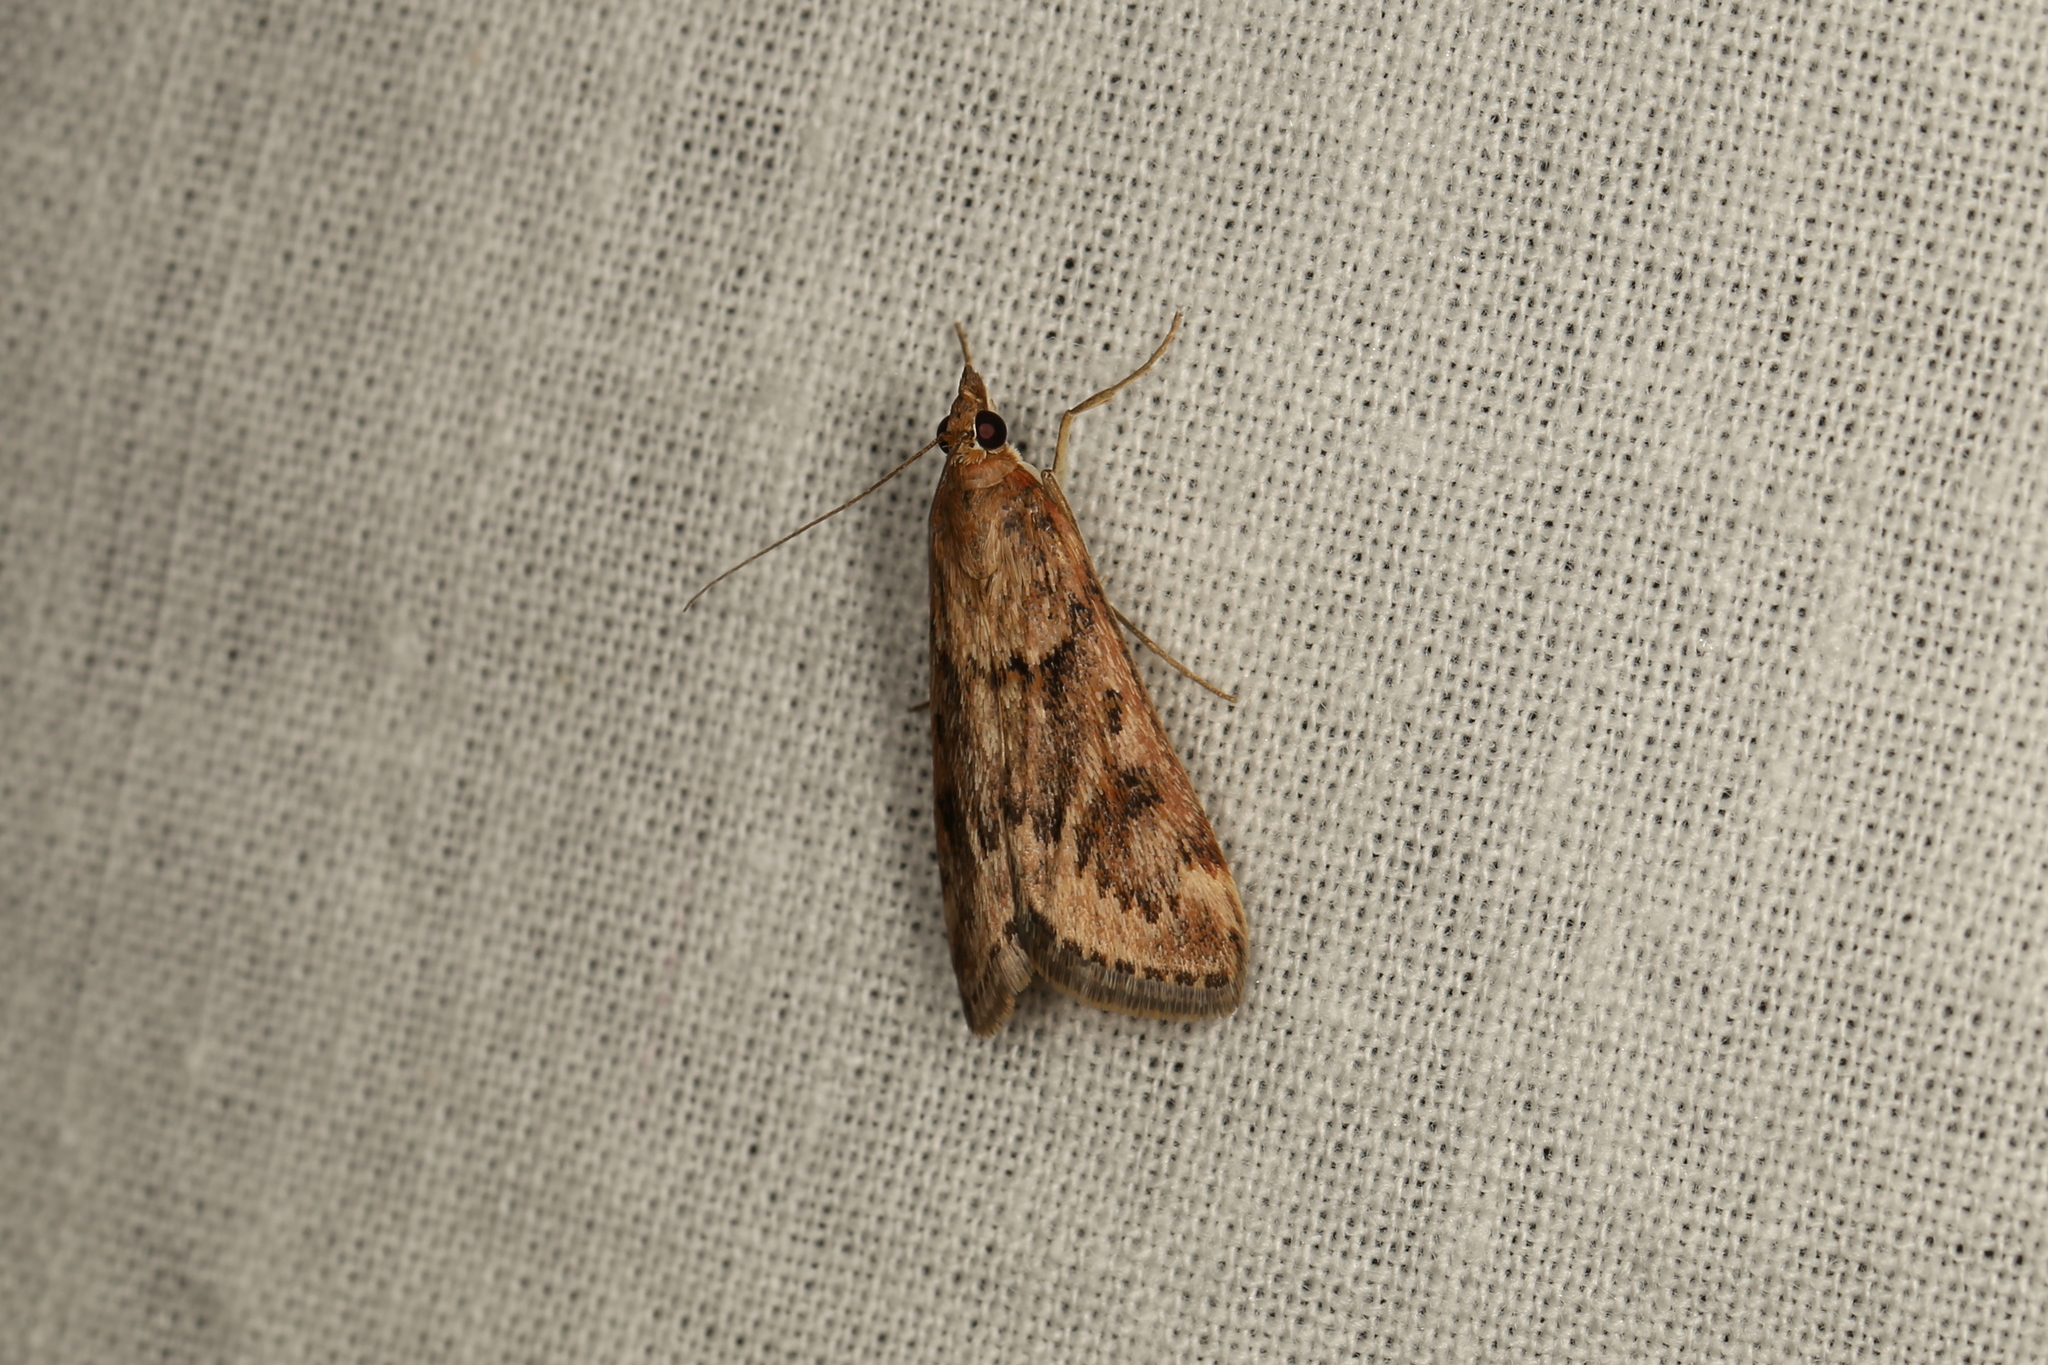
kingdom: Animalia
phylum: Arthropoda
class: Insecta
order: Lepidoptera
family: Crambidae
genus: Achyra
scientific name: Achyra affinitalis
